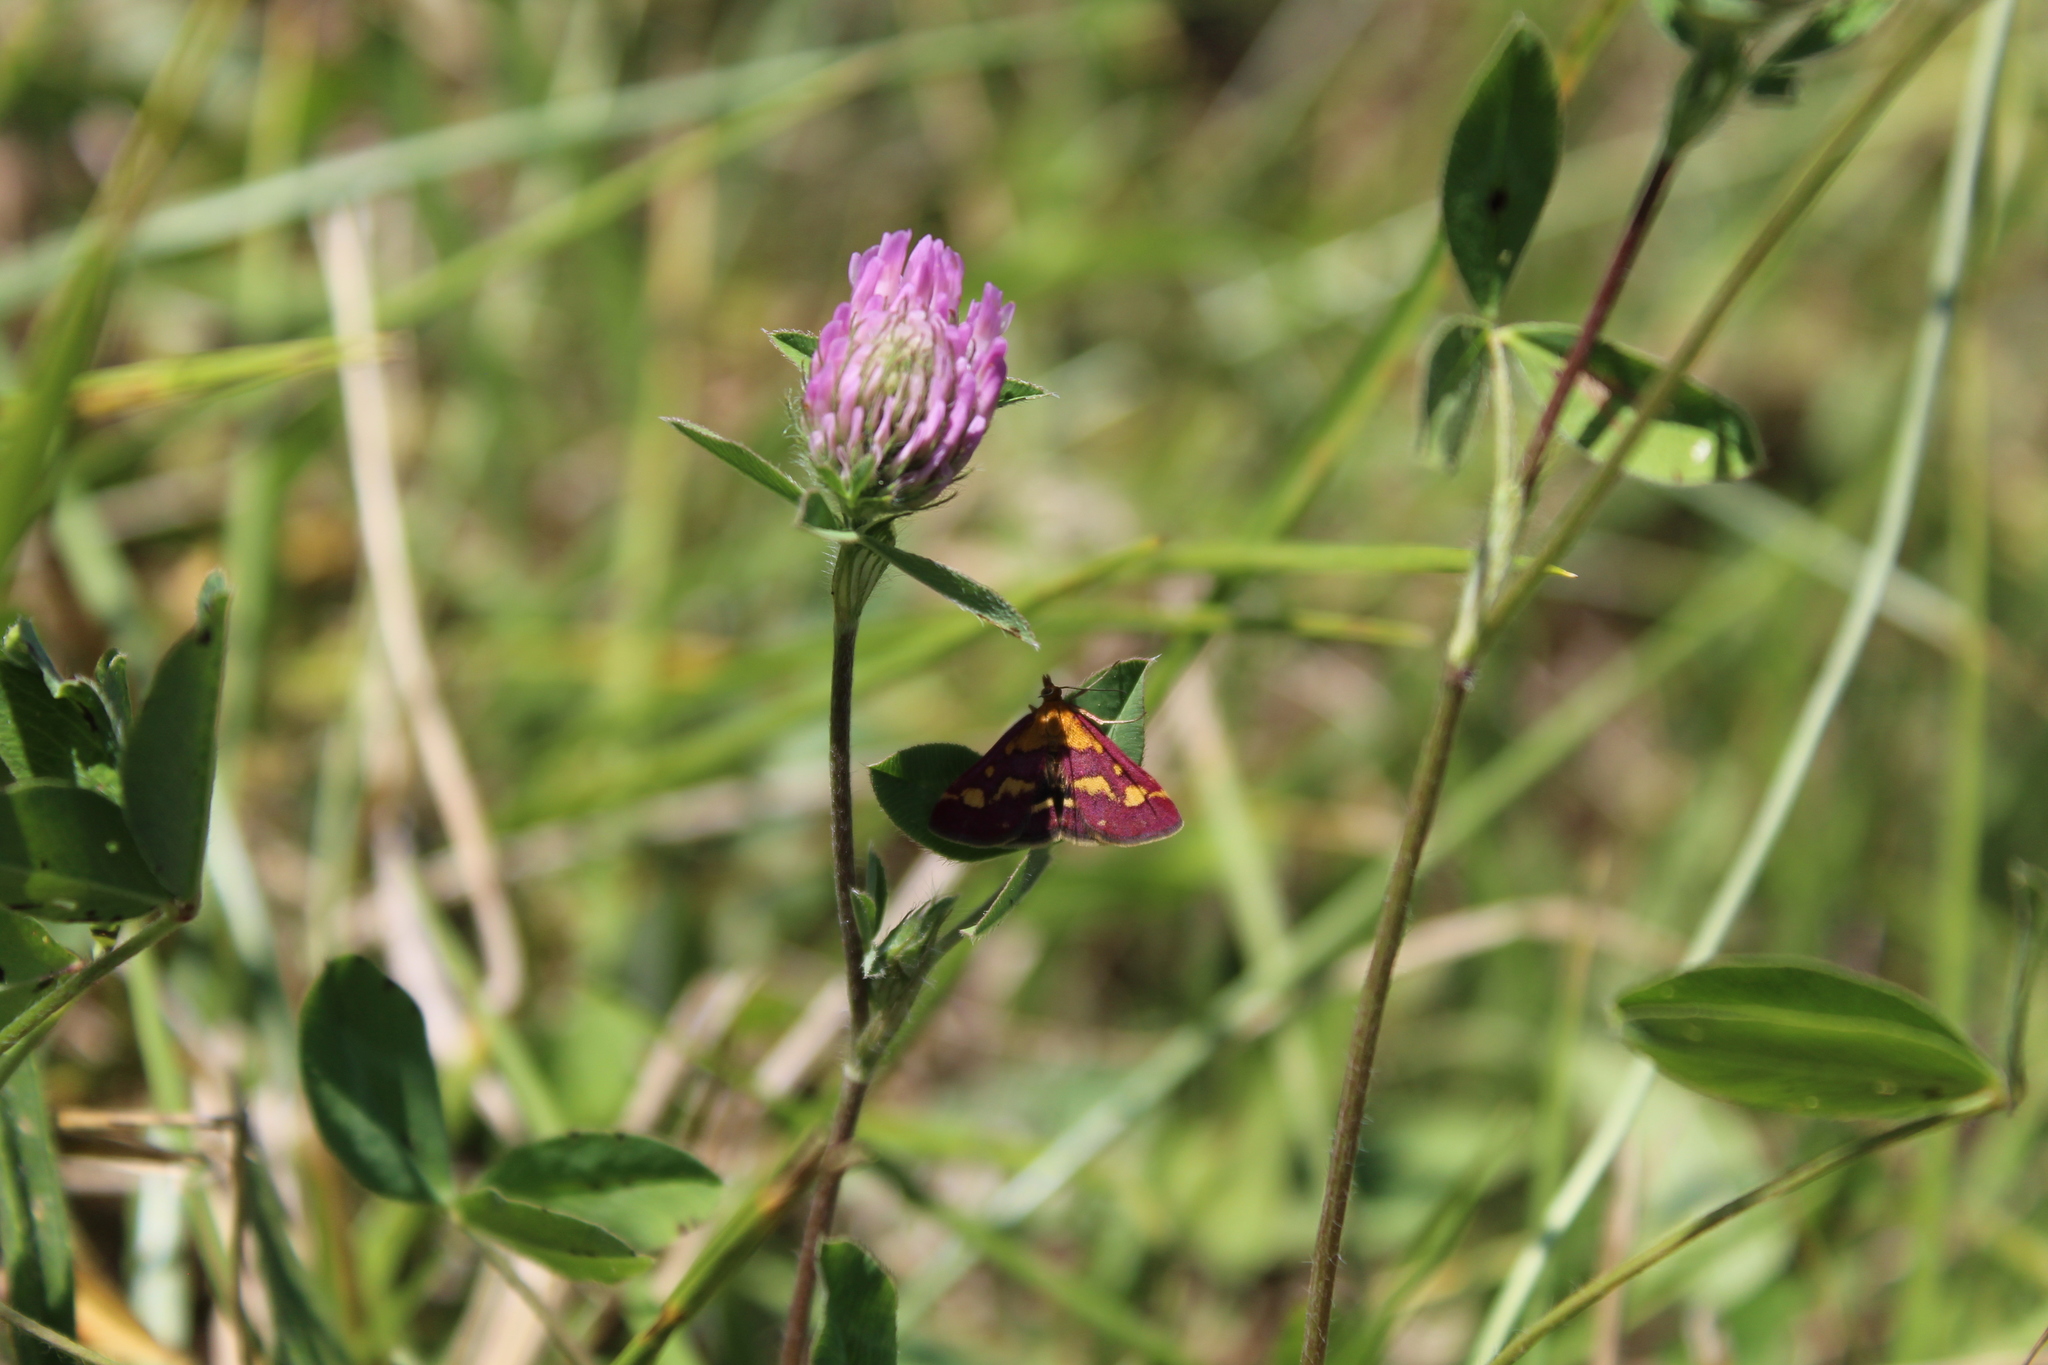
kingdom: Animalia
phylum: Arthropoda
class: Insecta
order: Lepidoptera
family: Crambidae
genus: Pyrausta
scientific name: Pyrausta purpuralis
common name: Common purple & gold
